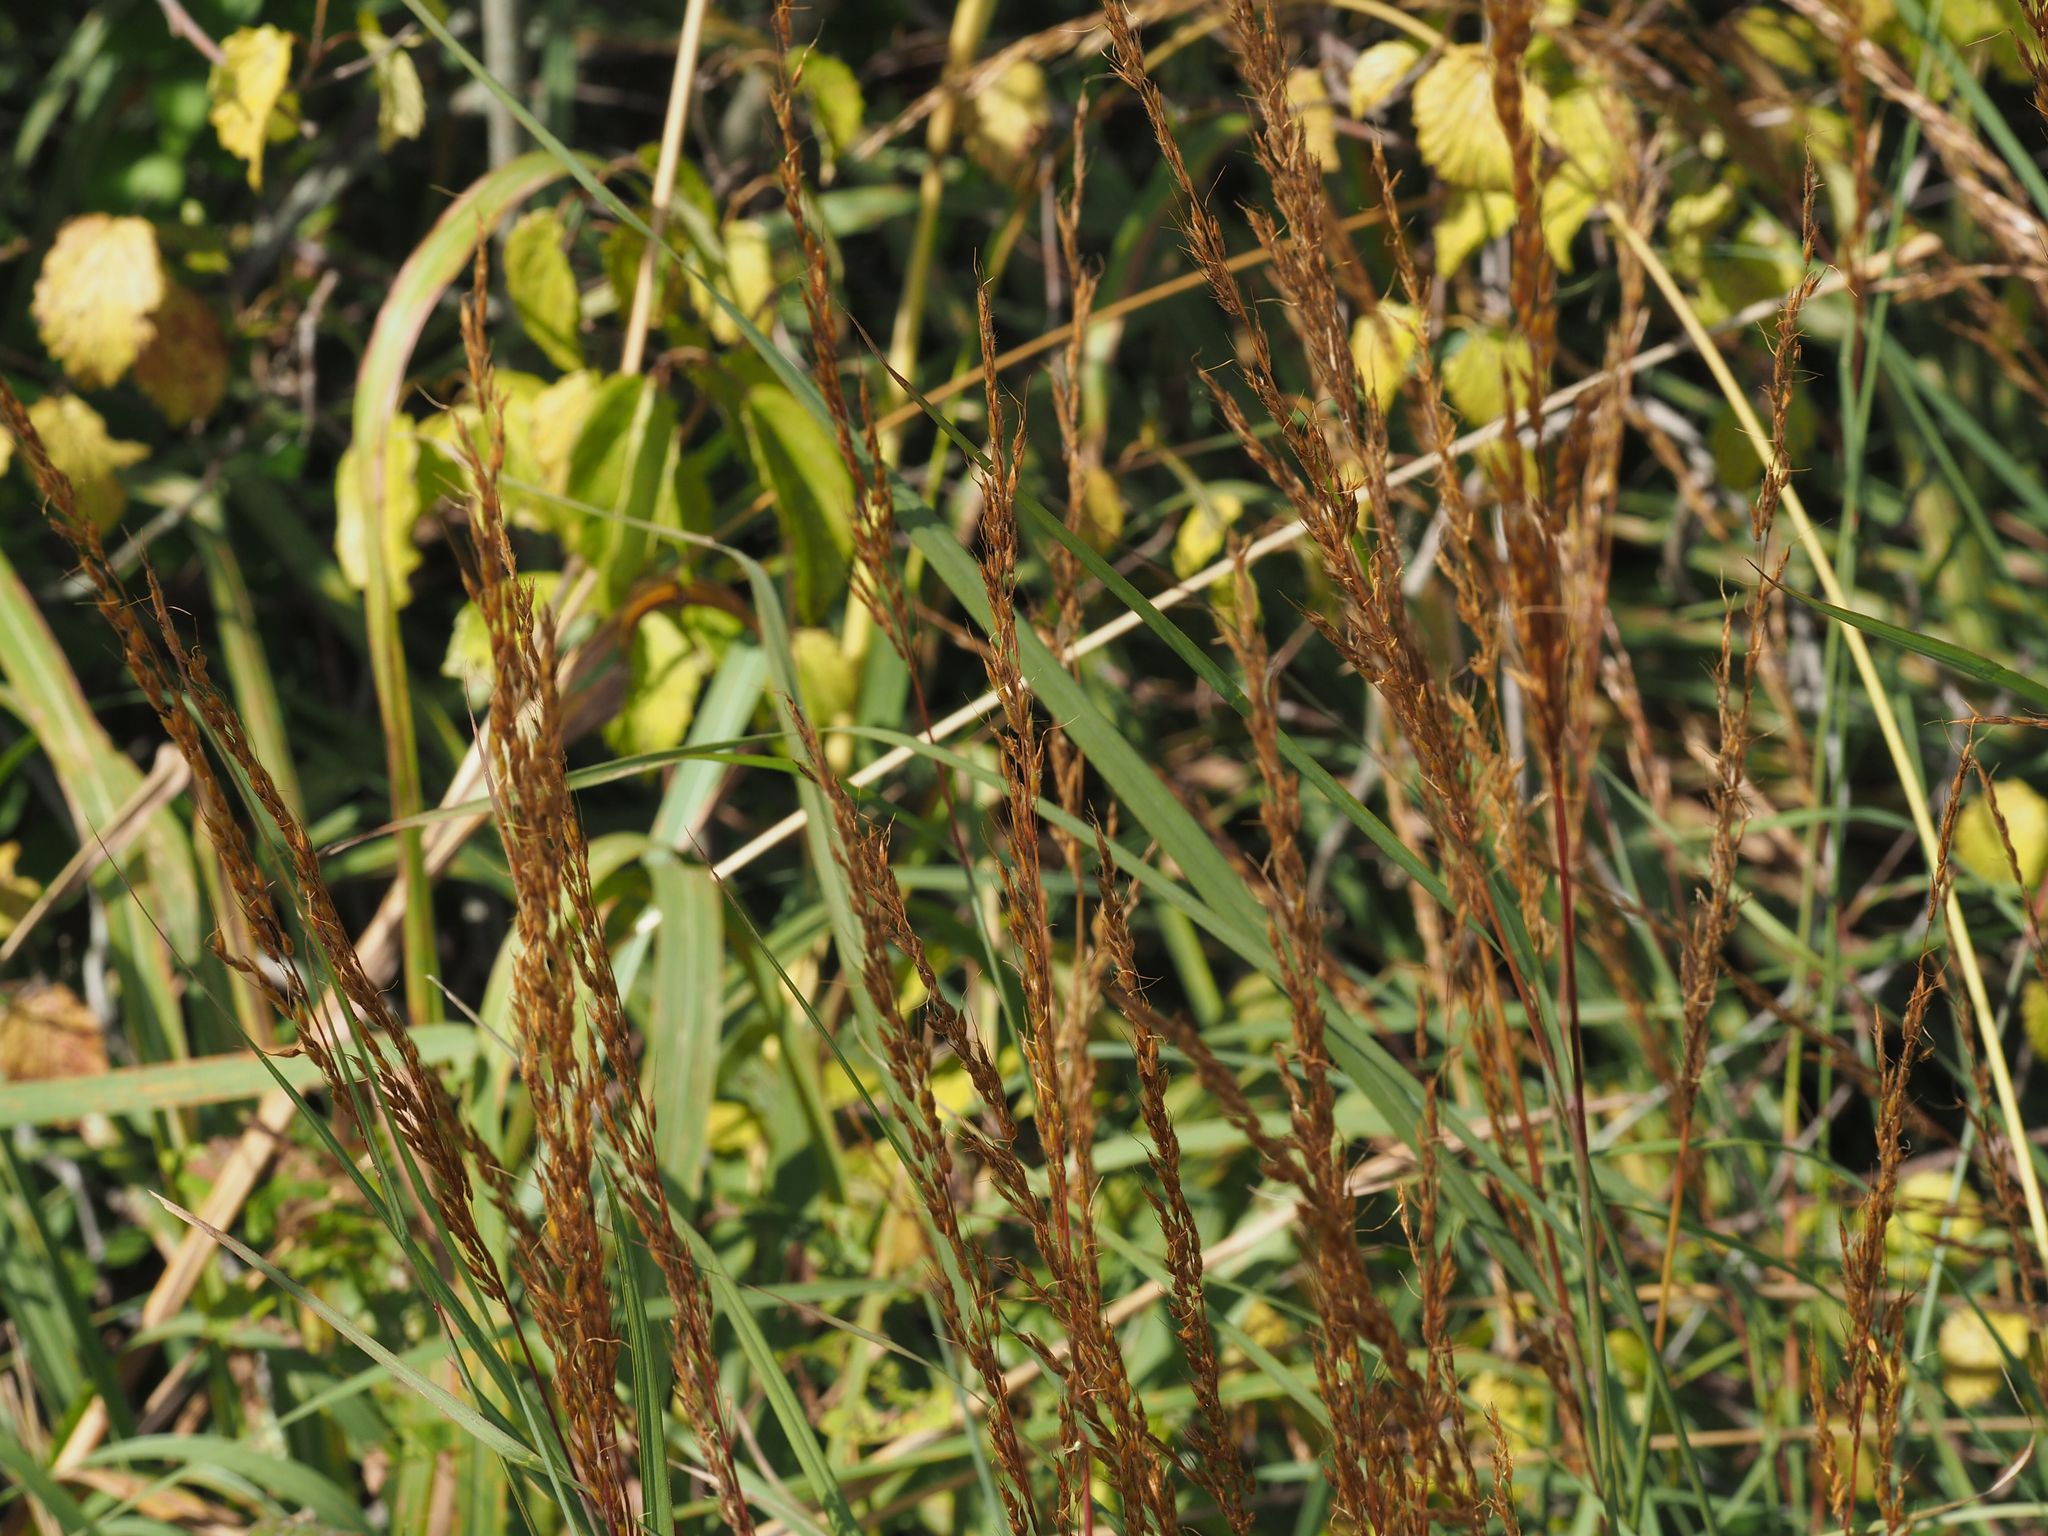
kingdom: Plantae
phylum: Tracheophyta
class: Liliopsida
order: Poales
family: Poaceae
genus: Sorghastrum
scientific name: Sorghastrum nutans
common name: Indian grass
